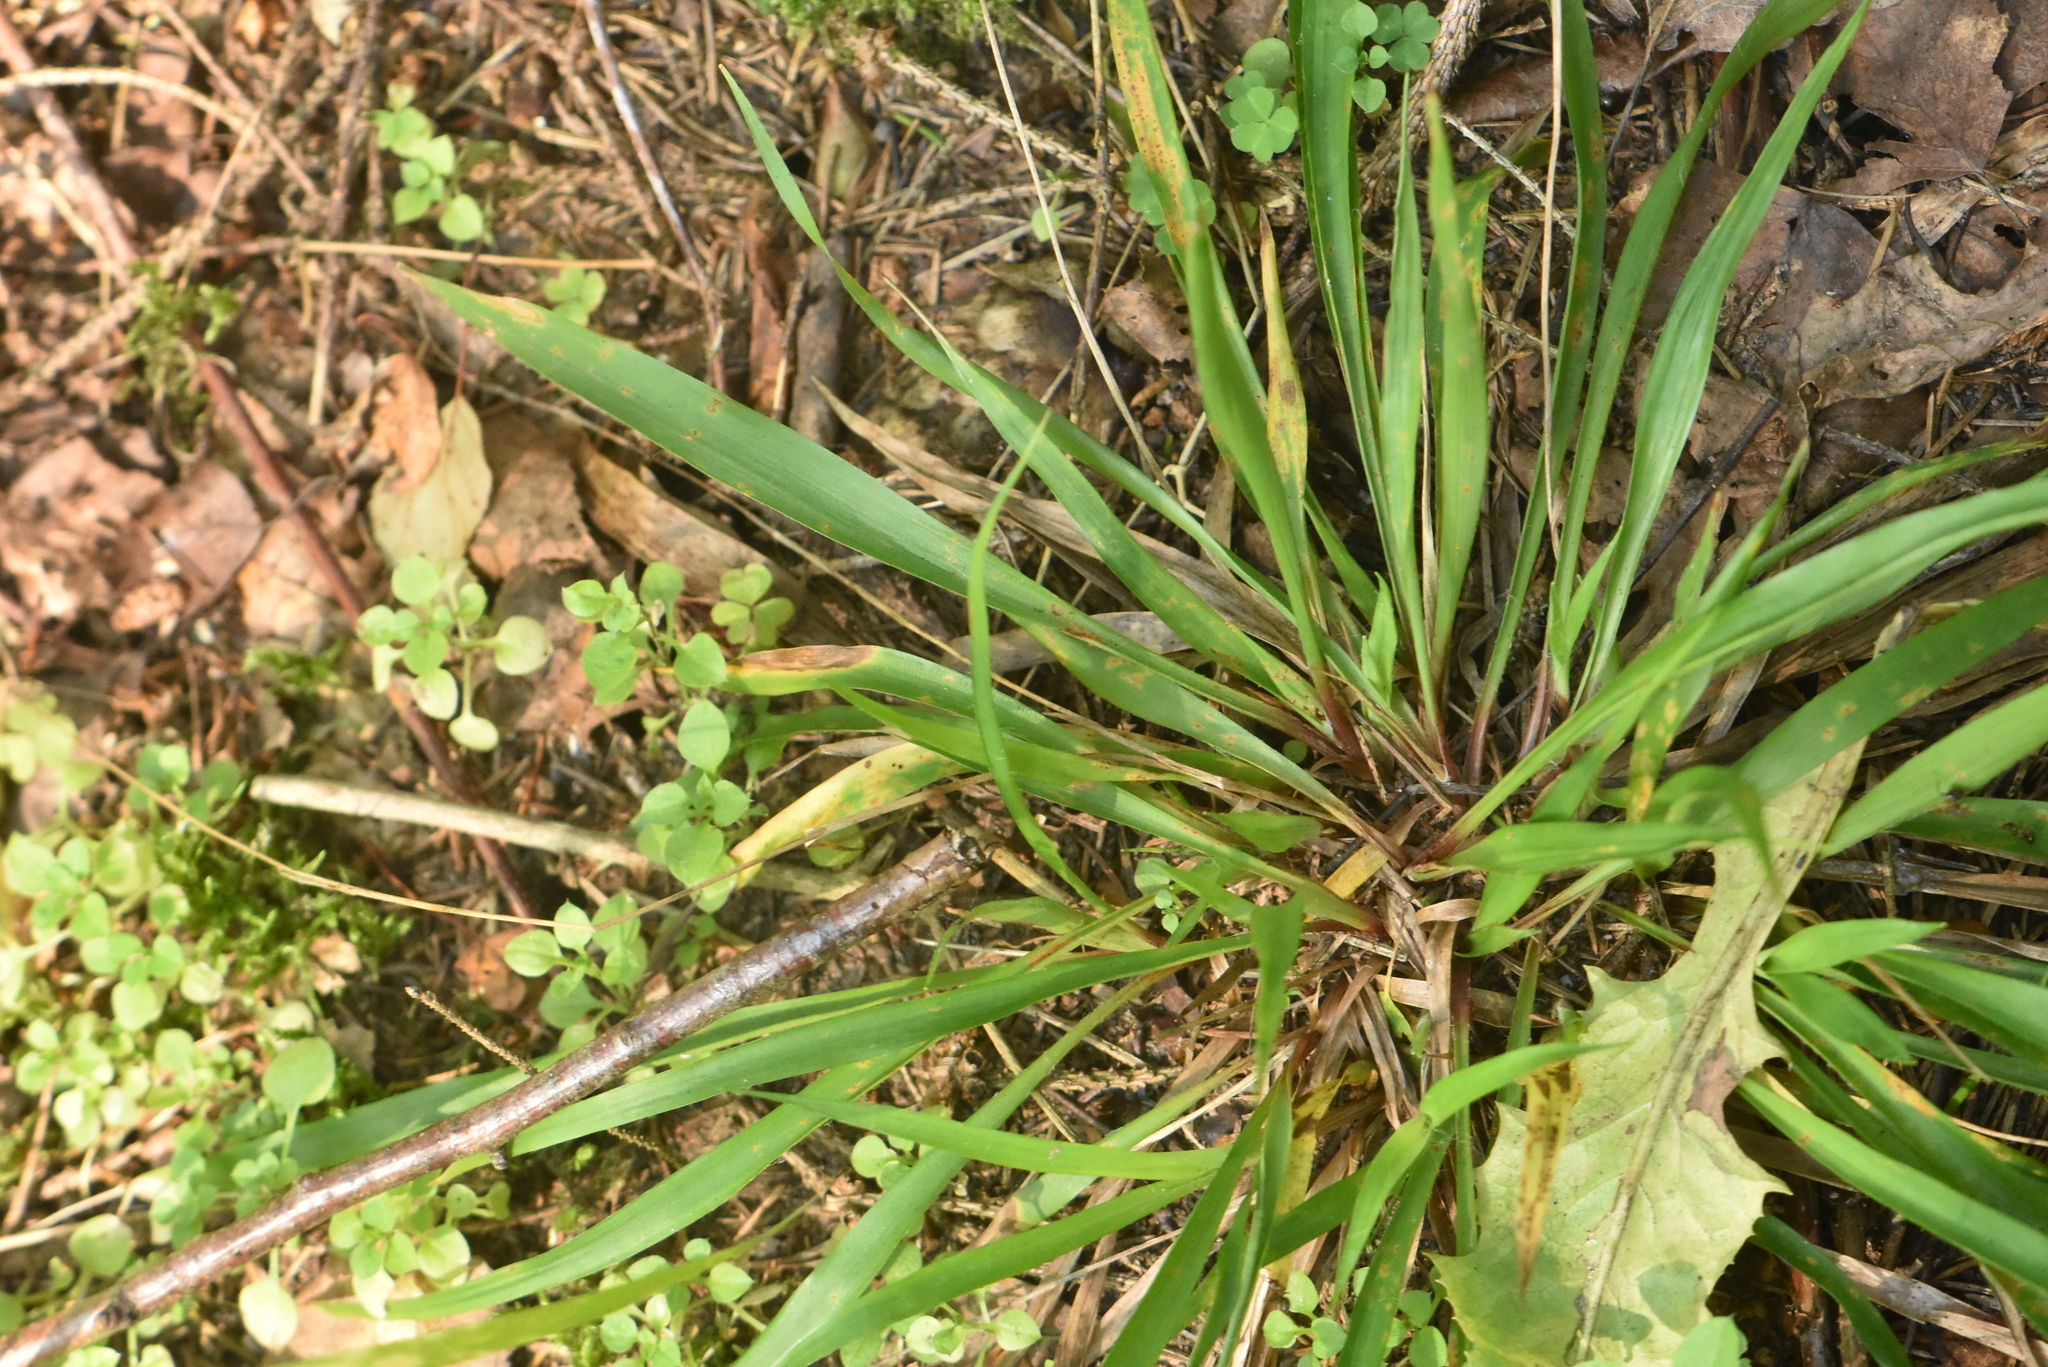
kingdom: Plantae
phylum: Tracheophyta
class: Liliopsida
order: Poales
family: Juncaceae
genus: Luzula
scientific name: Luzula pilosa
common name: Hairy wood-rush
